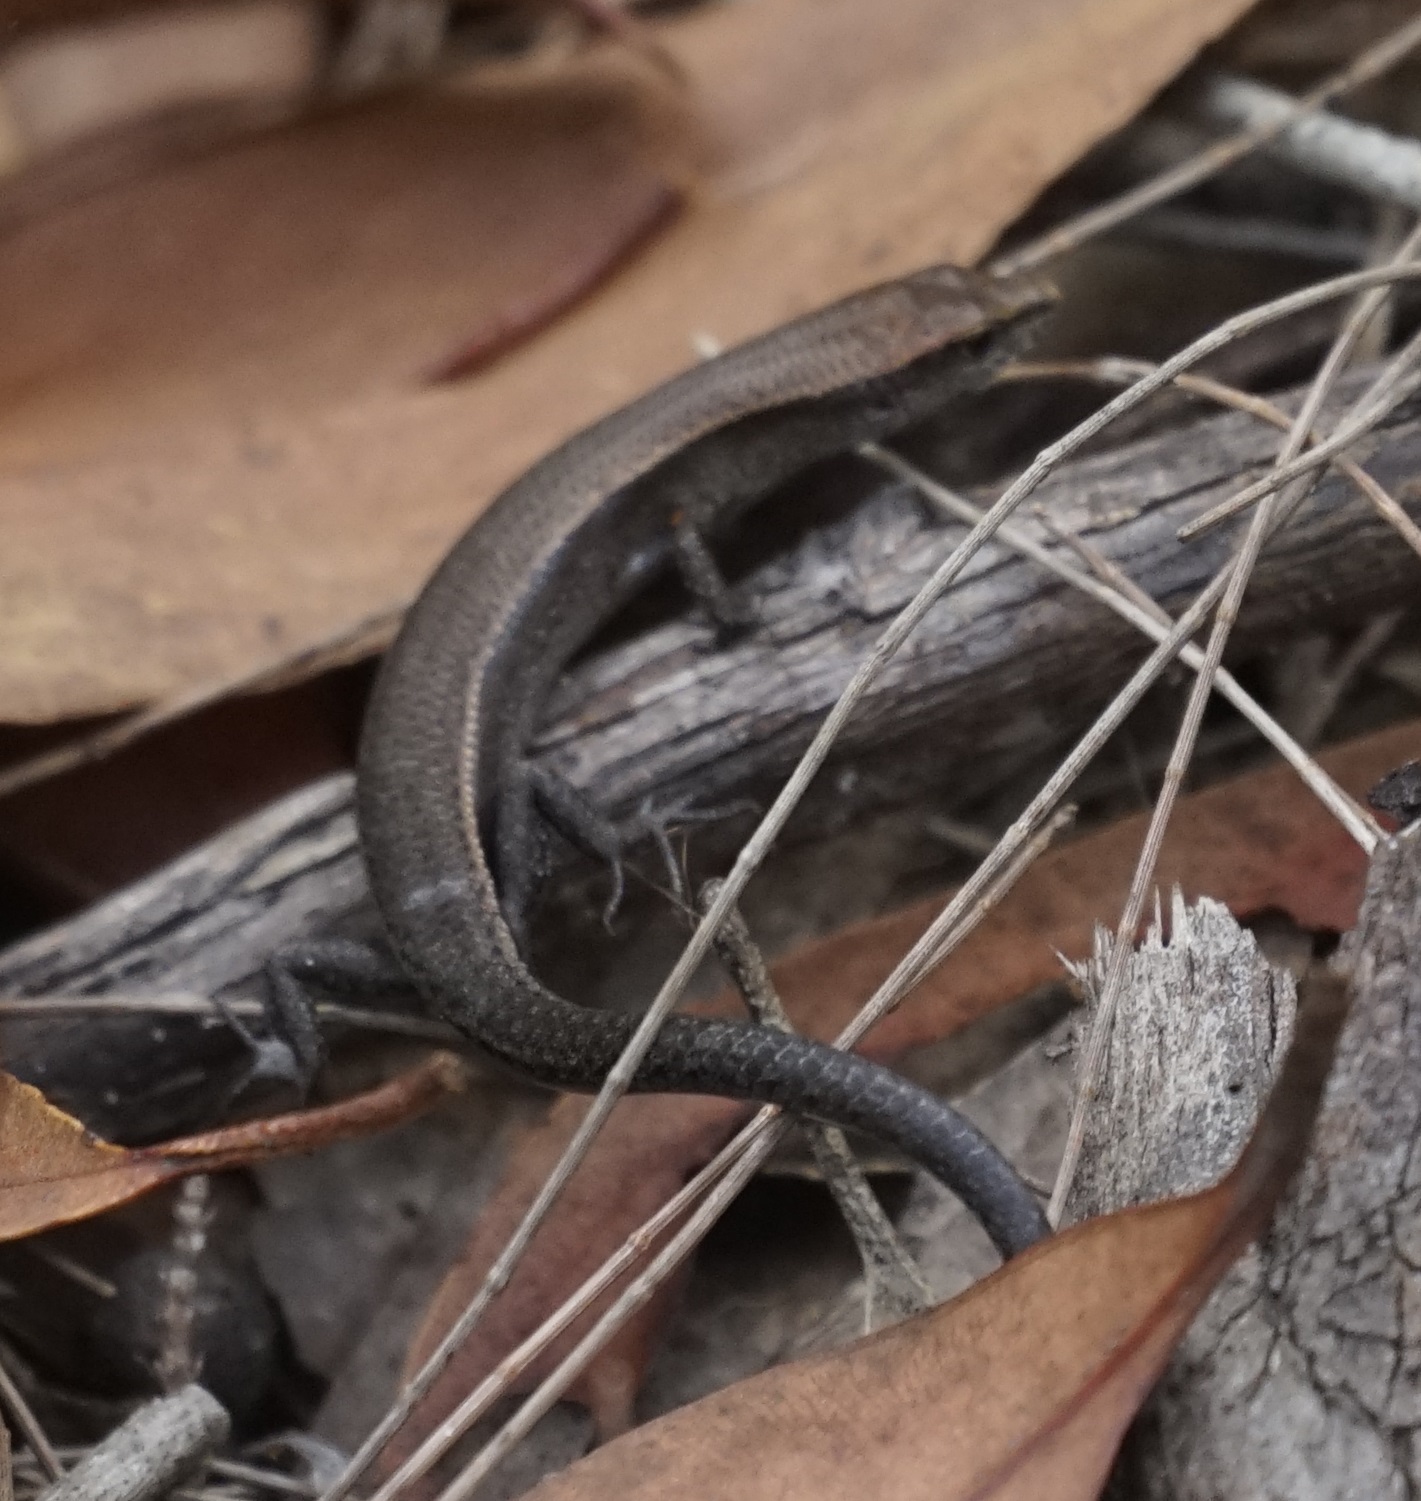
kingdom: Animalia
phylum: Chordata
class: Squamata
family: Scincidae
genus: Lampropholis
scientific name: Lampropholis delicata
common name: Plague skink
